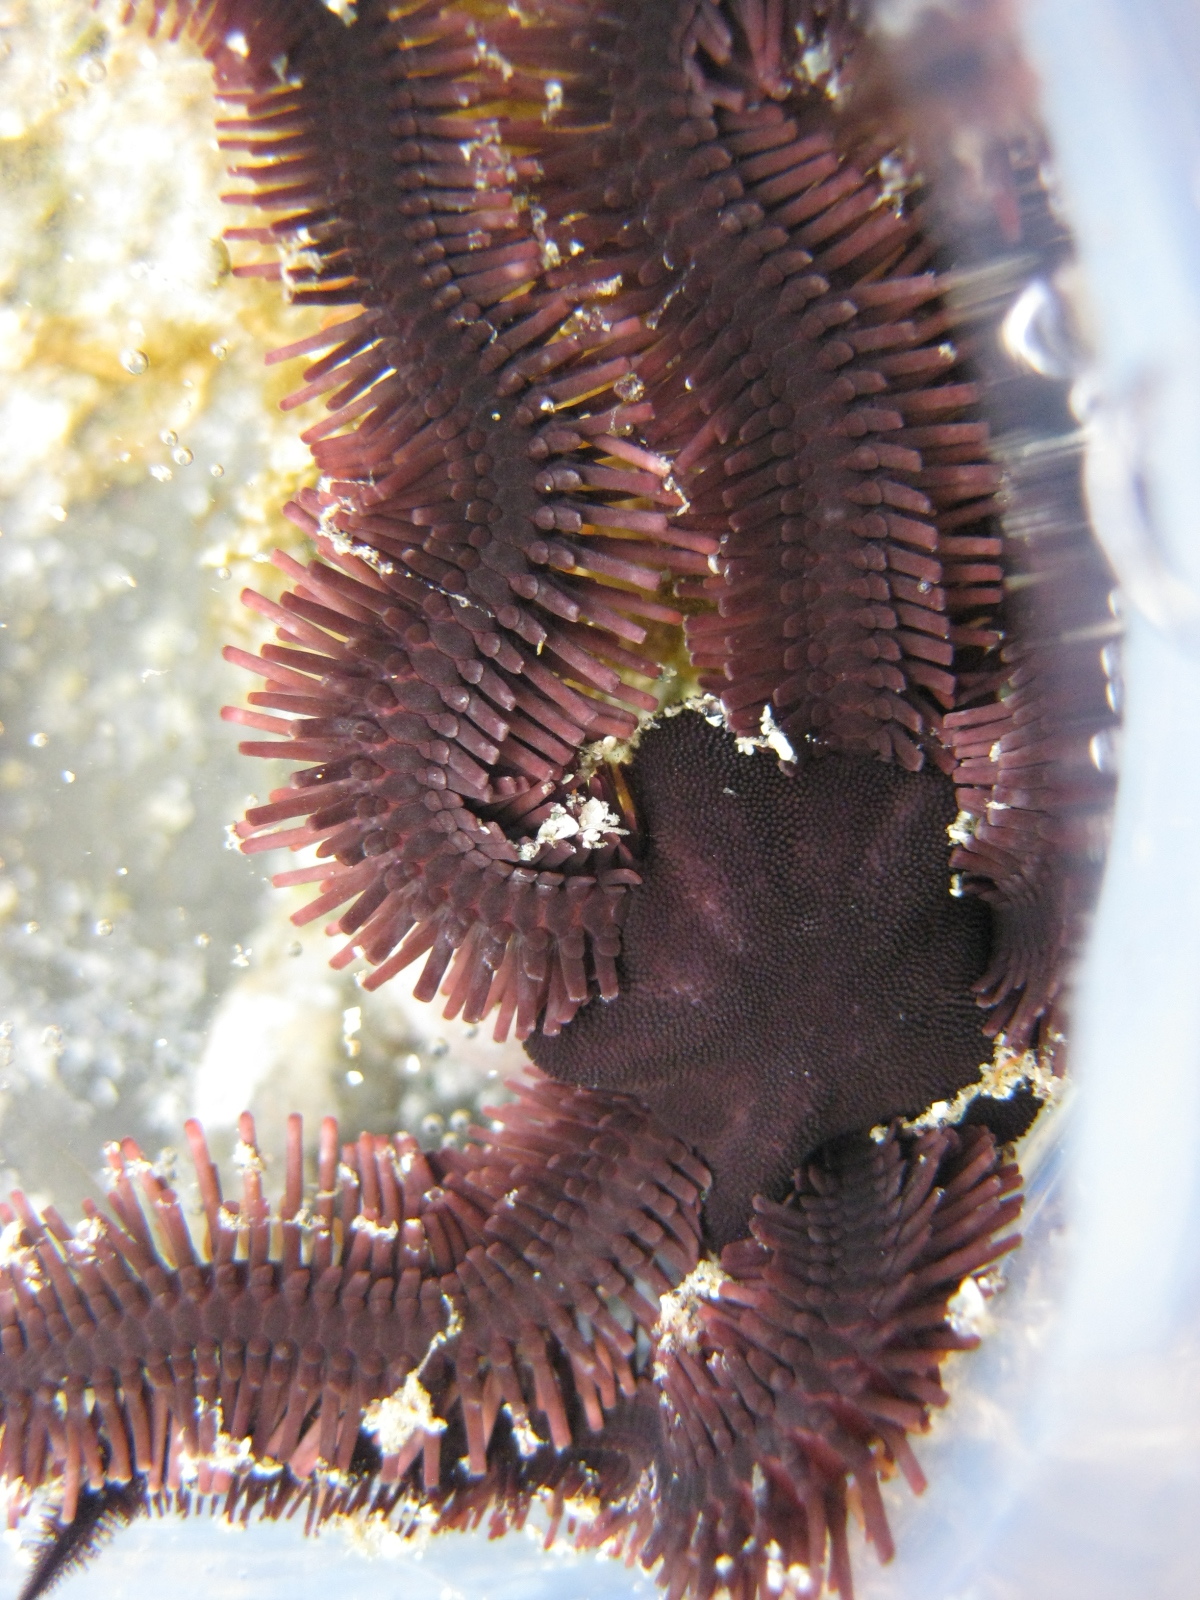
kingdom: Animalia
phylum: Echinodermata
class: Ophiuroidea
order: Ophiacanthida
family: Ophiopteridae
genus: Ophiopteris
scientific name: Ophiopteris antipodum
